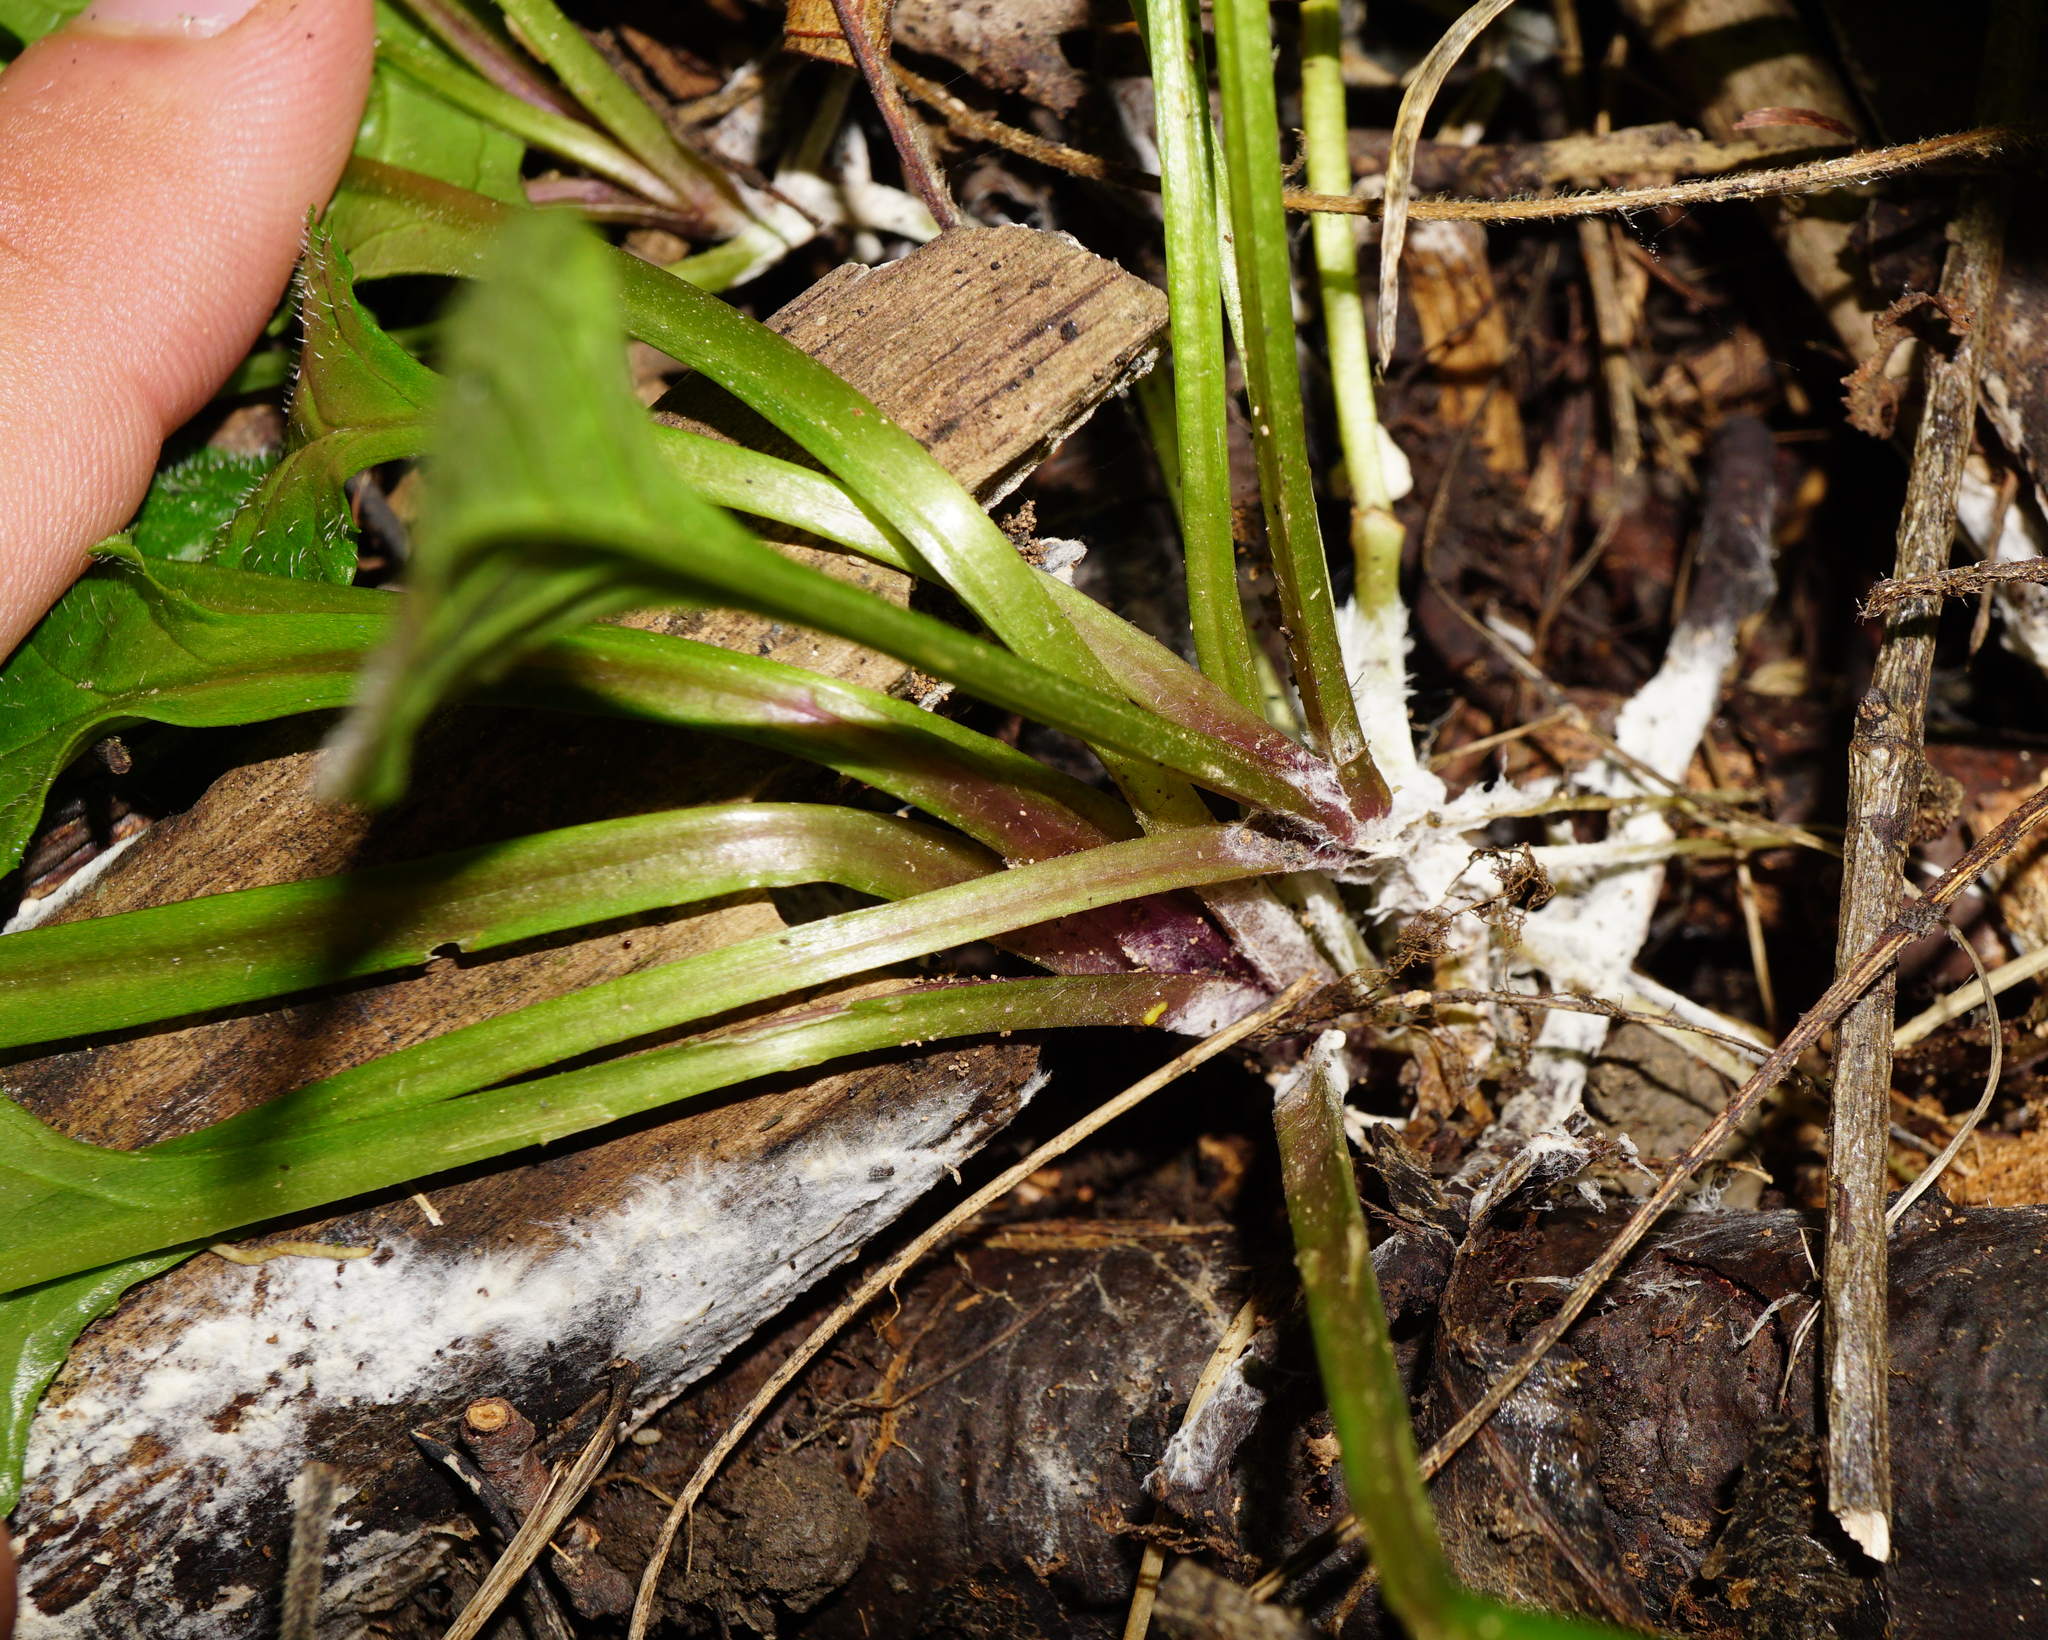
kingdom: Plantae
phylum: Tracheophyta
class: Magnoliopsida
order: Lamiales
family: Lamiaceae
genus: Ajuga
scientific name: Ajuga reptans
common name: Bugle
